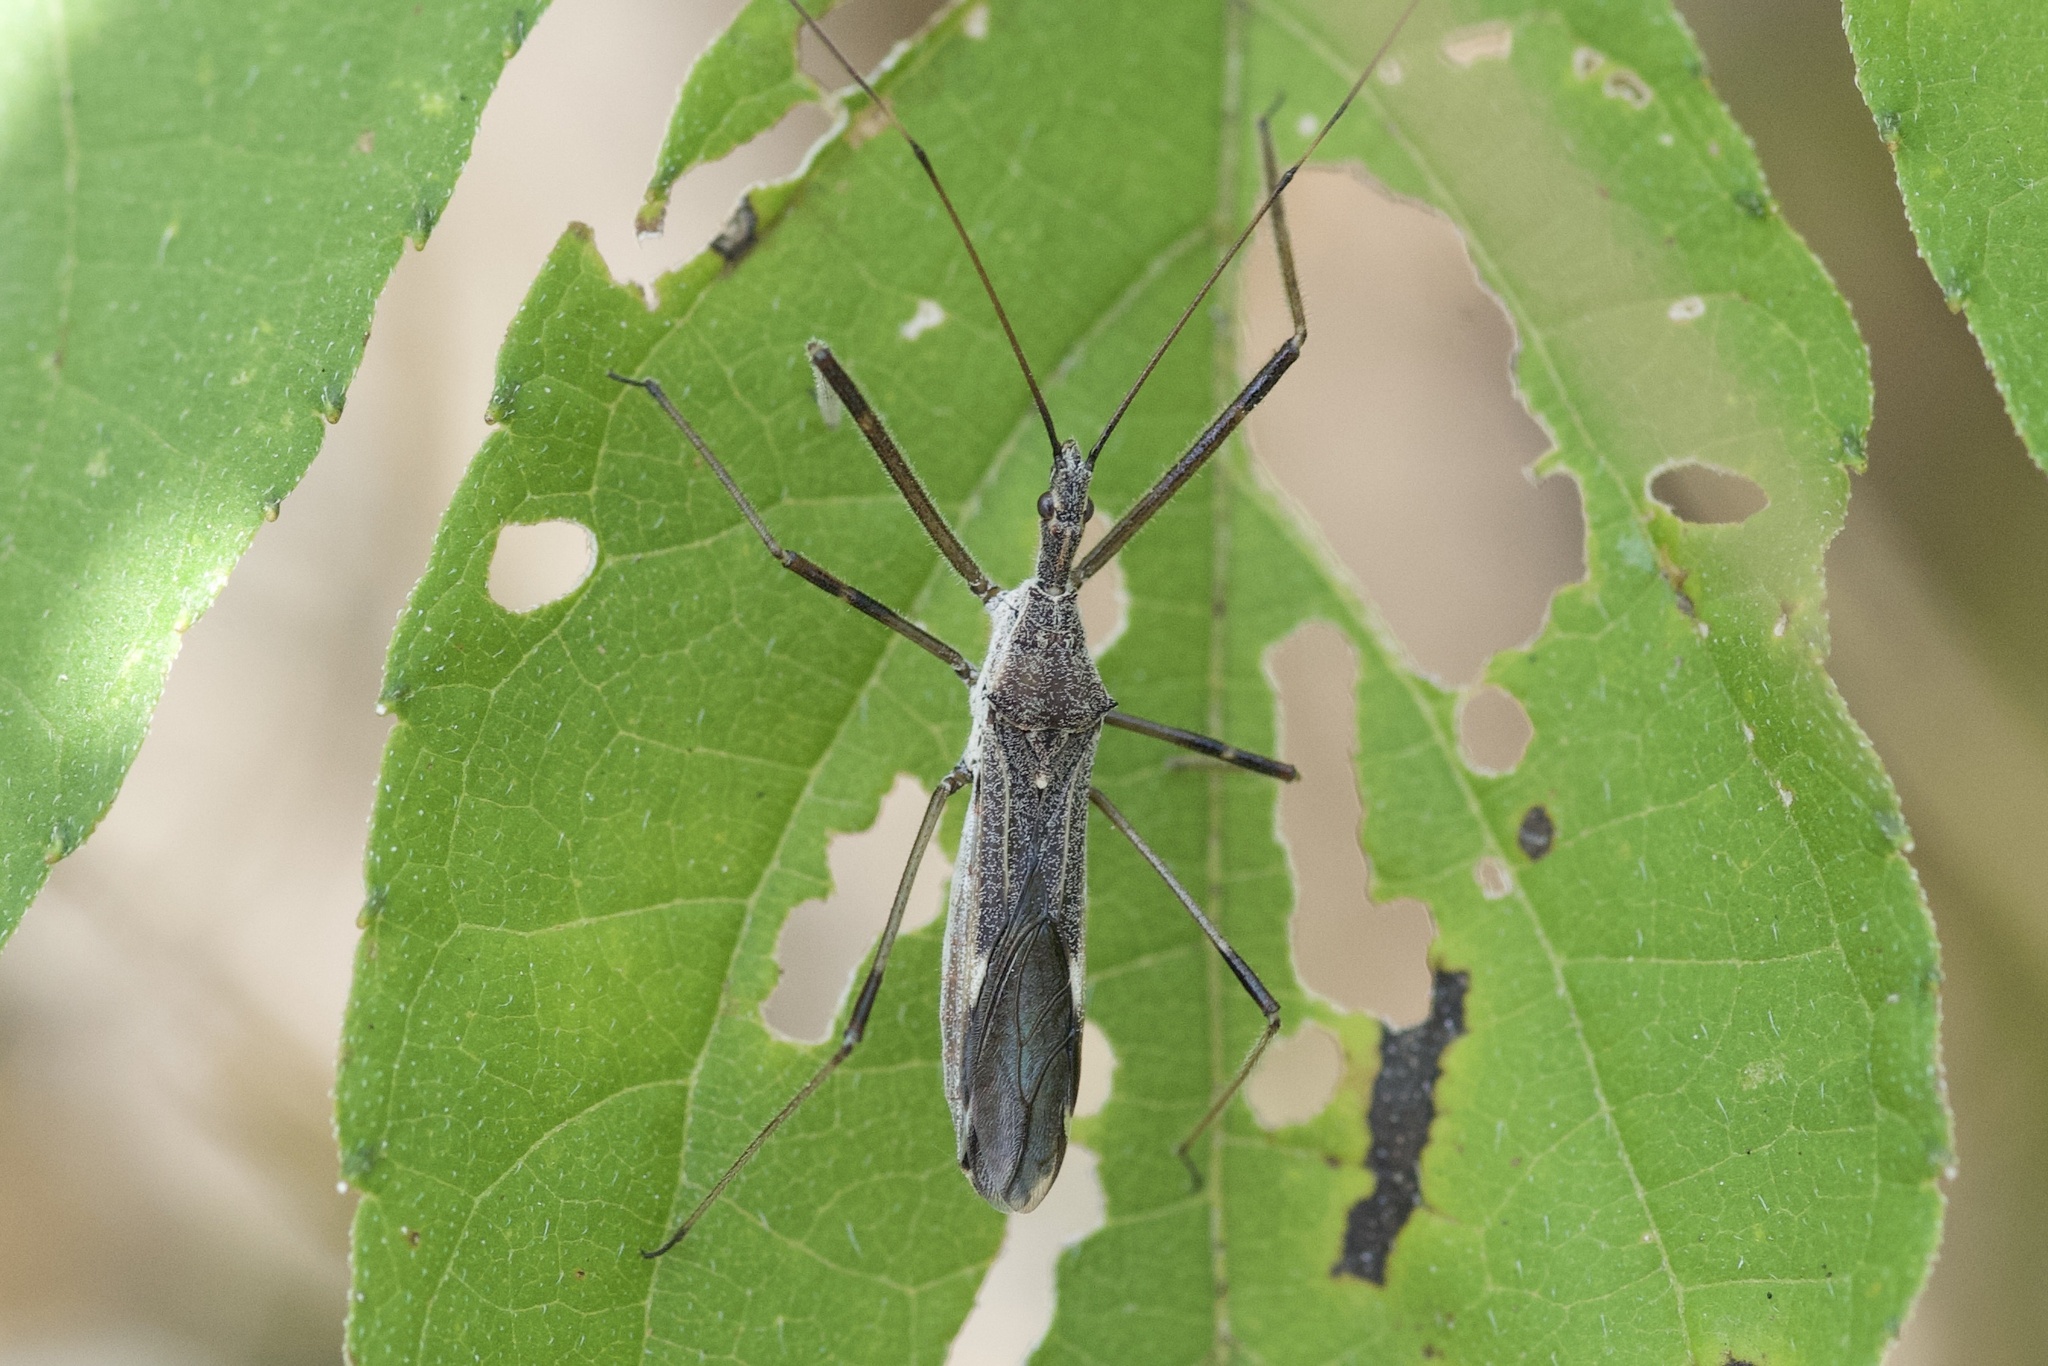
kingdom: Animalia
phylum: Arthropoda
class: Insecta
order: Hemiptera
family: Reduviidae
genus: Zelus
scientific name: Zelus tetracanthus
